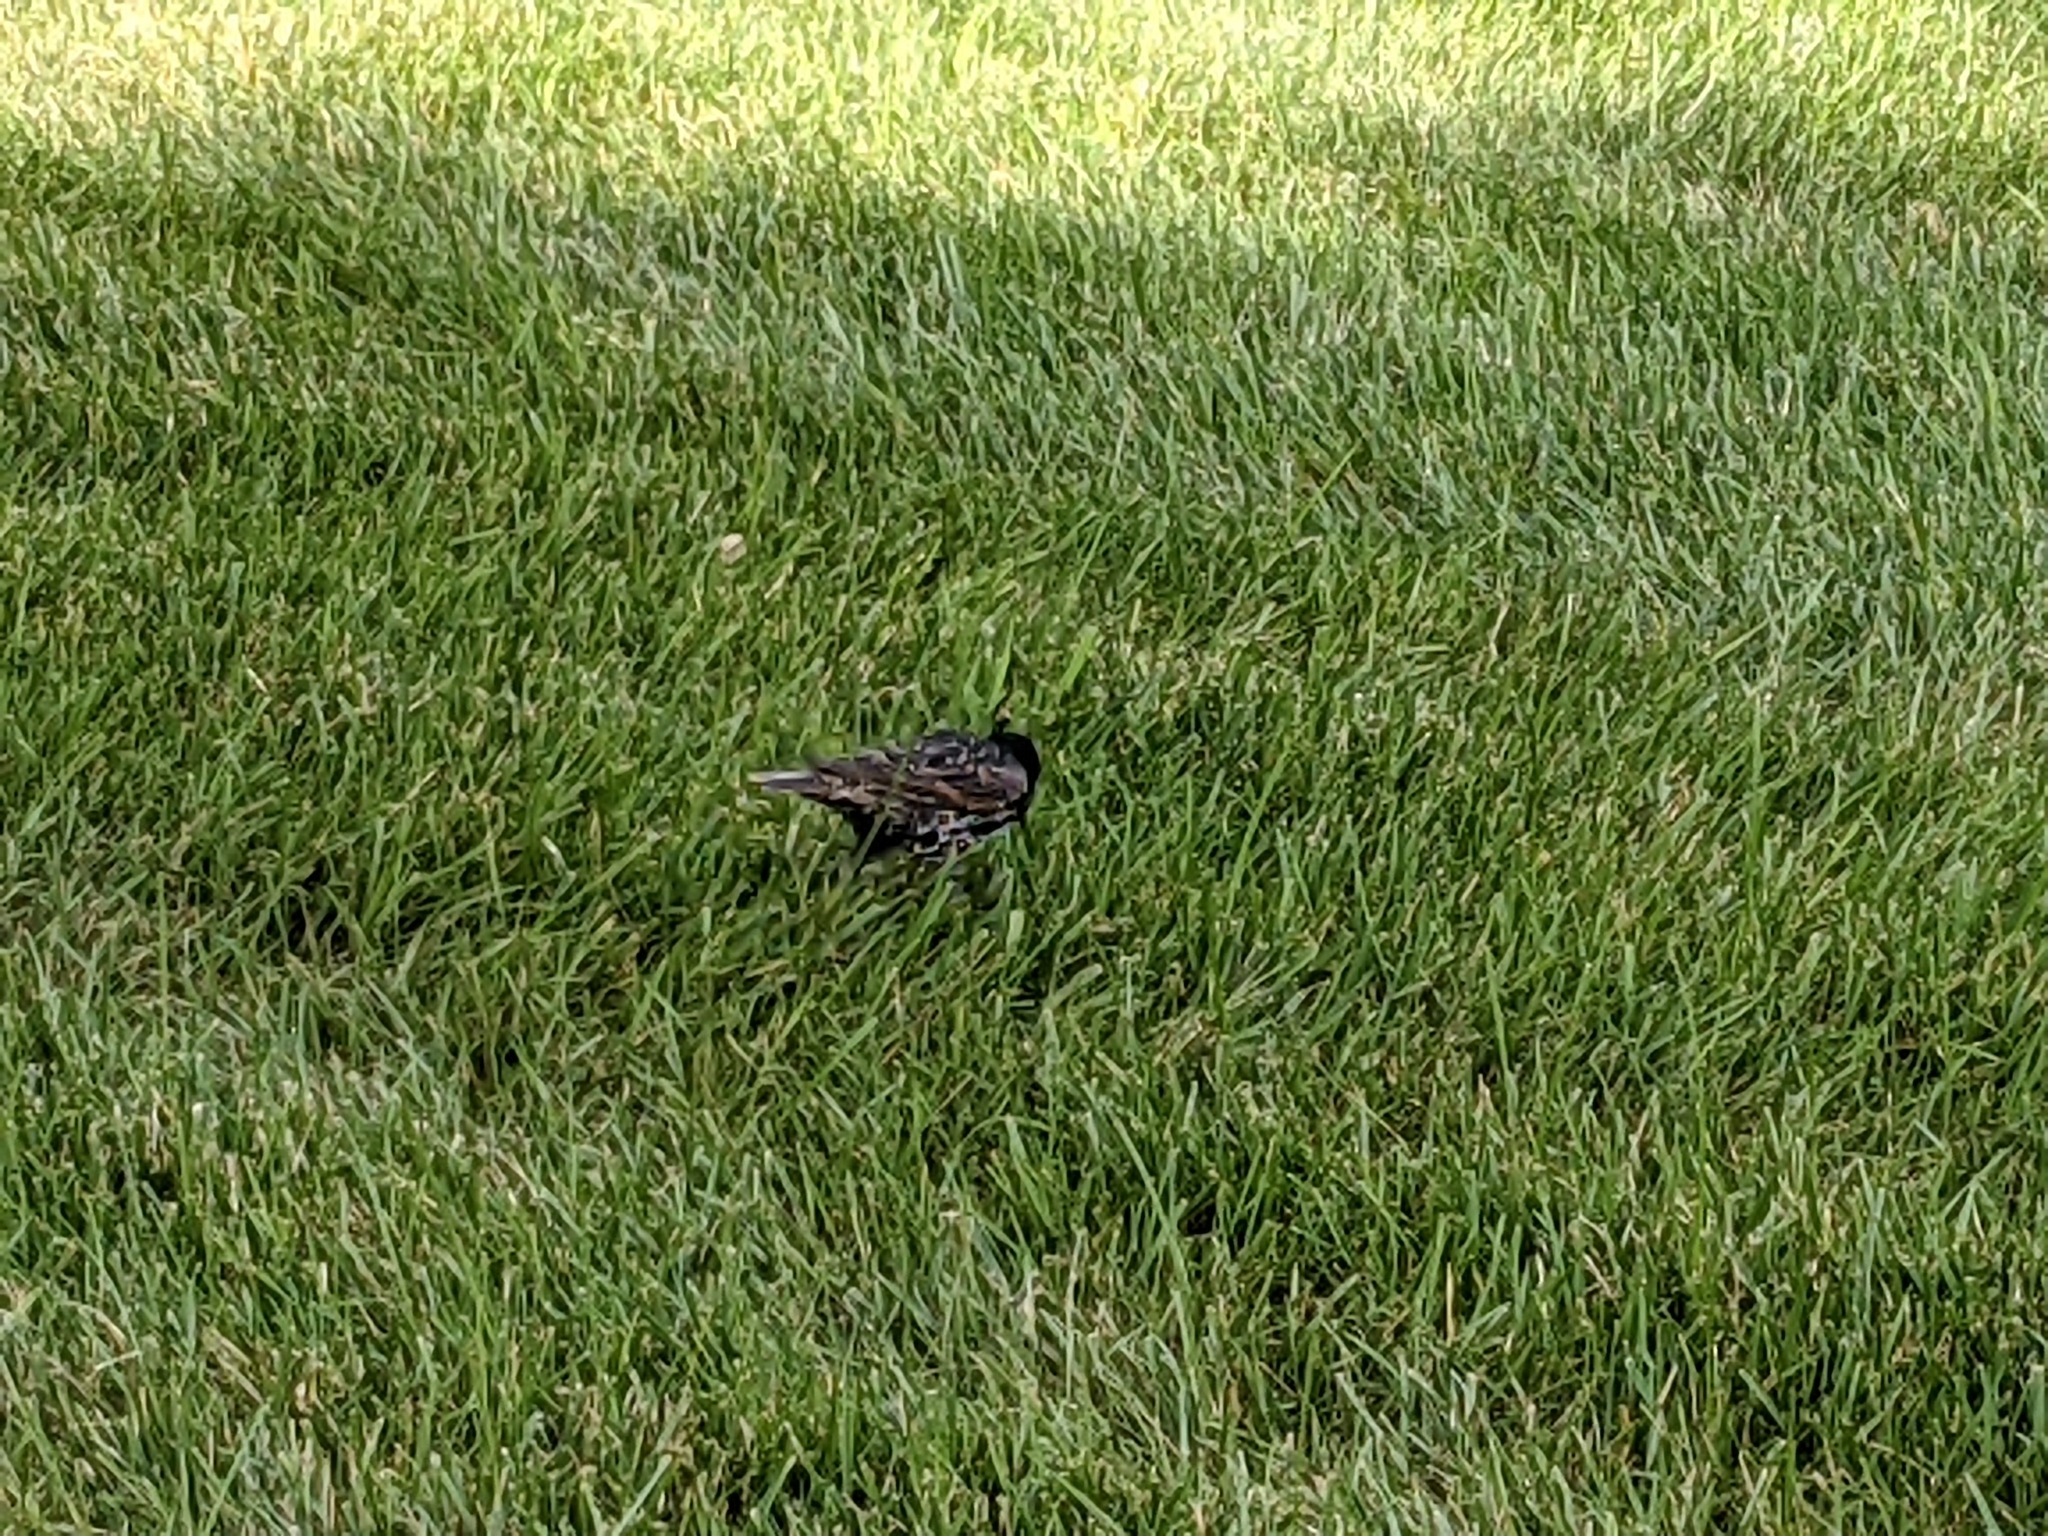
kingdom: Animalia
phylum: Chordata
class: Aves
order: Passeriformes
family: Sturnidae
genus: Sturnus
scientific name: Sturnus vulgaris
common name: Common starling
